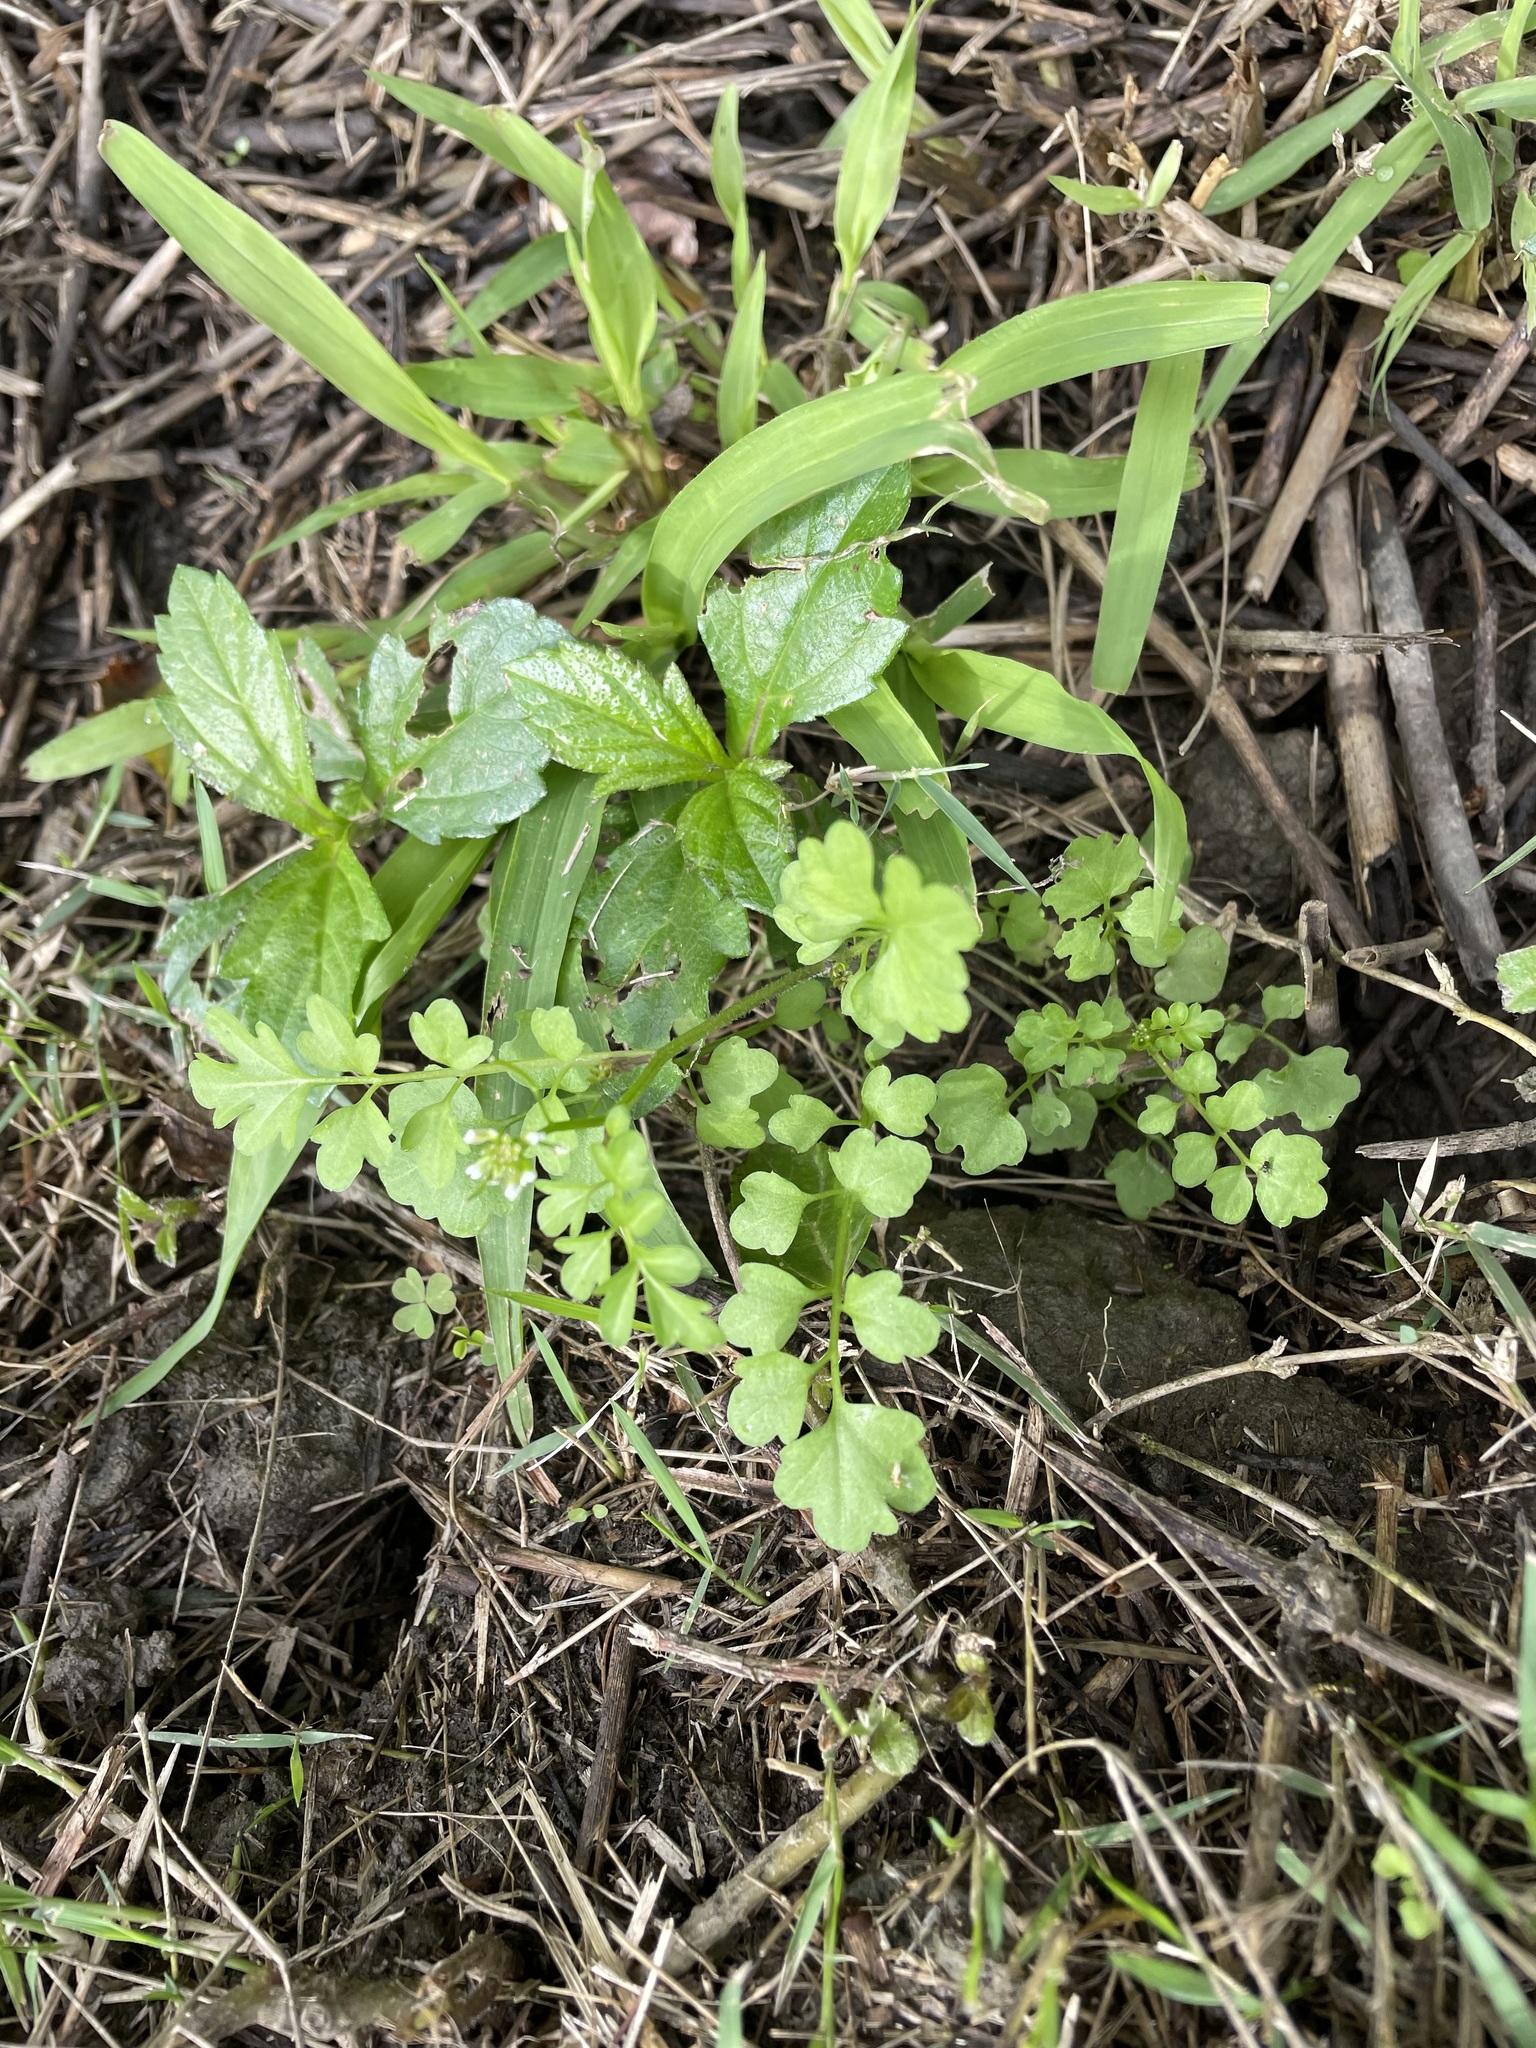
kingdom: Plantae
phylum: Tracheophyta
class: Magnoliopsida
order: Brassicales
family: Brassicaceae
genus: Cardamine
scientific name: Cardamine flexuosa
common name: Woodland bittercress
